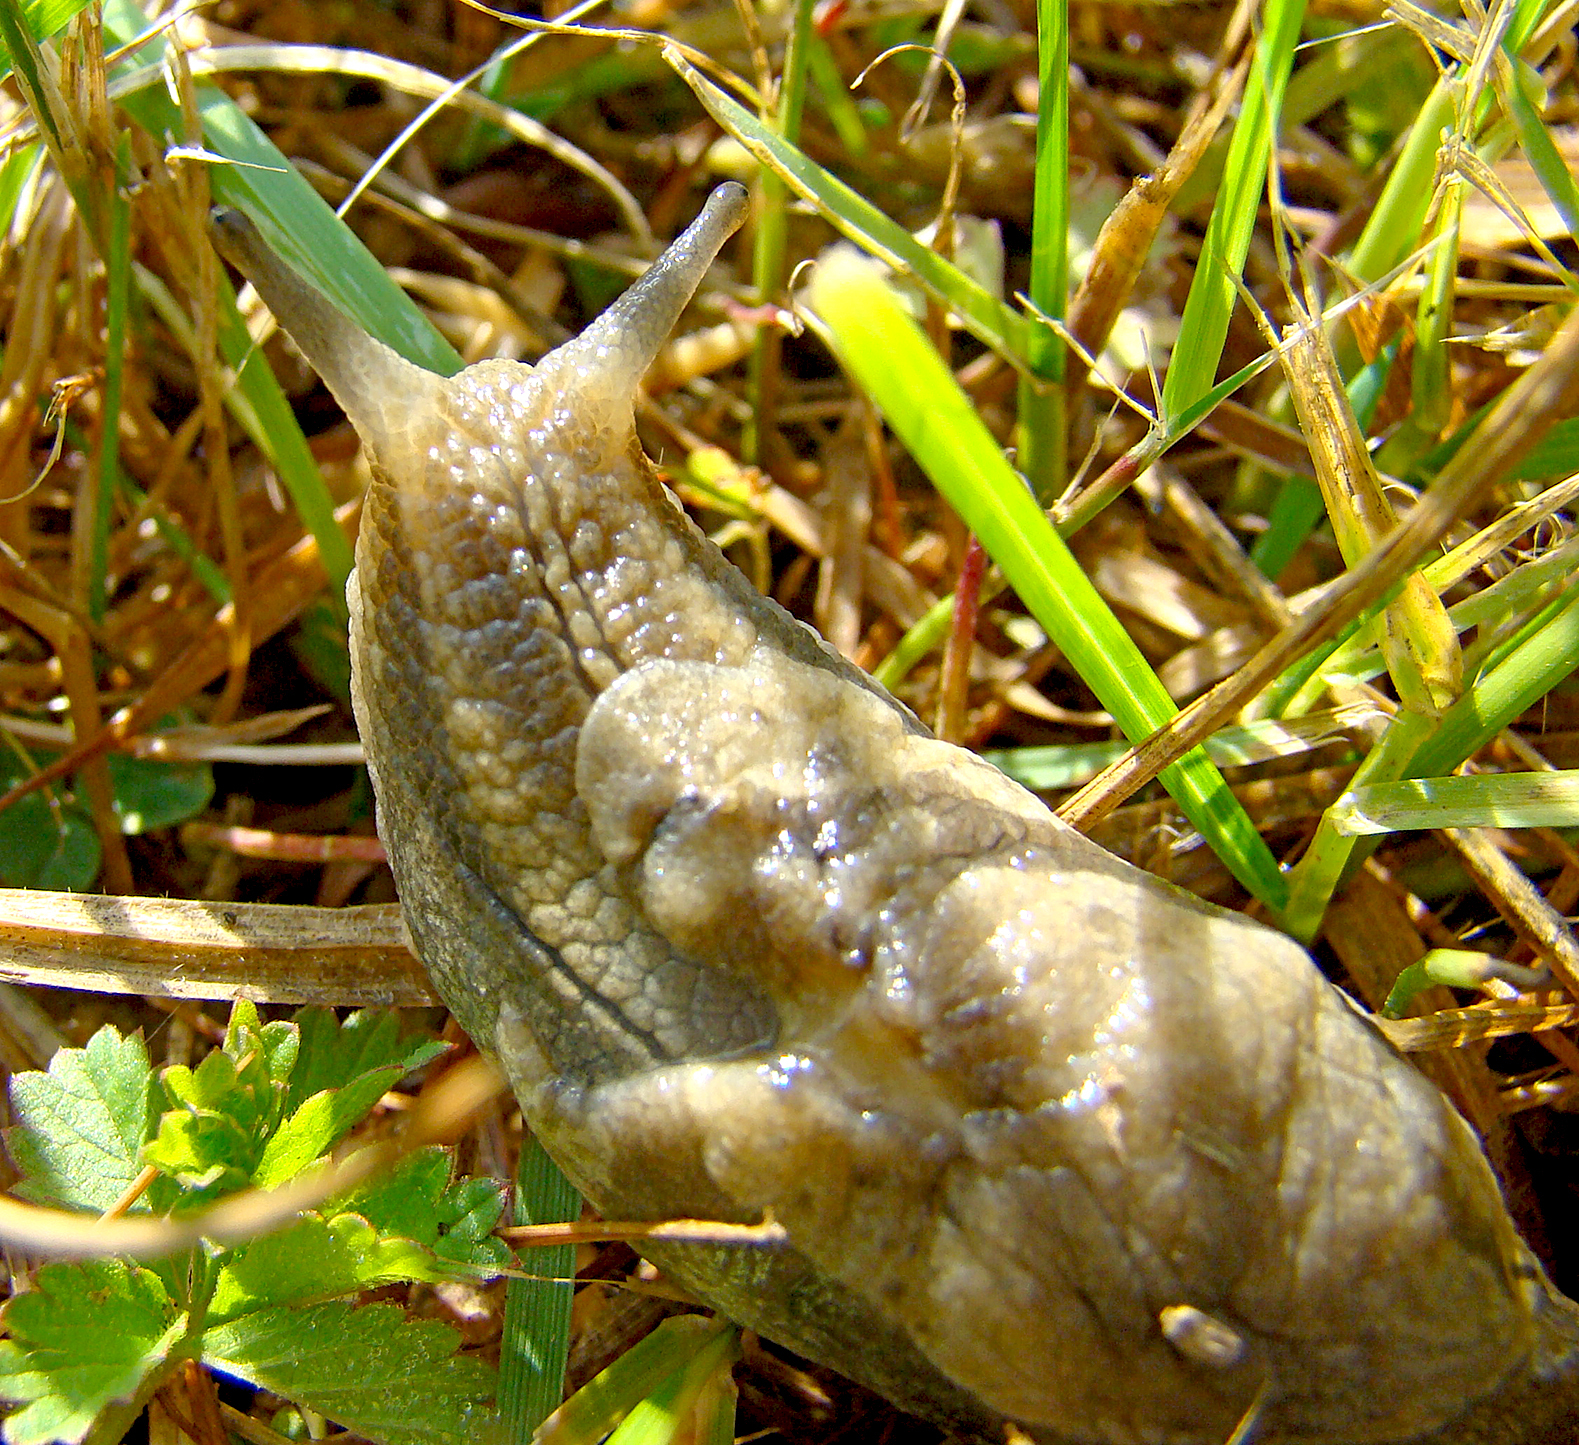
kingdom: Animalia
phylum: Mollusca
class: Gastropoda
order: Stylommatophora
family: Parmacellidae
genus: Drusia
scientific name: Drusia ibera
